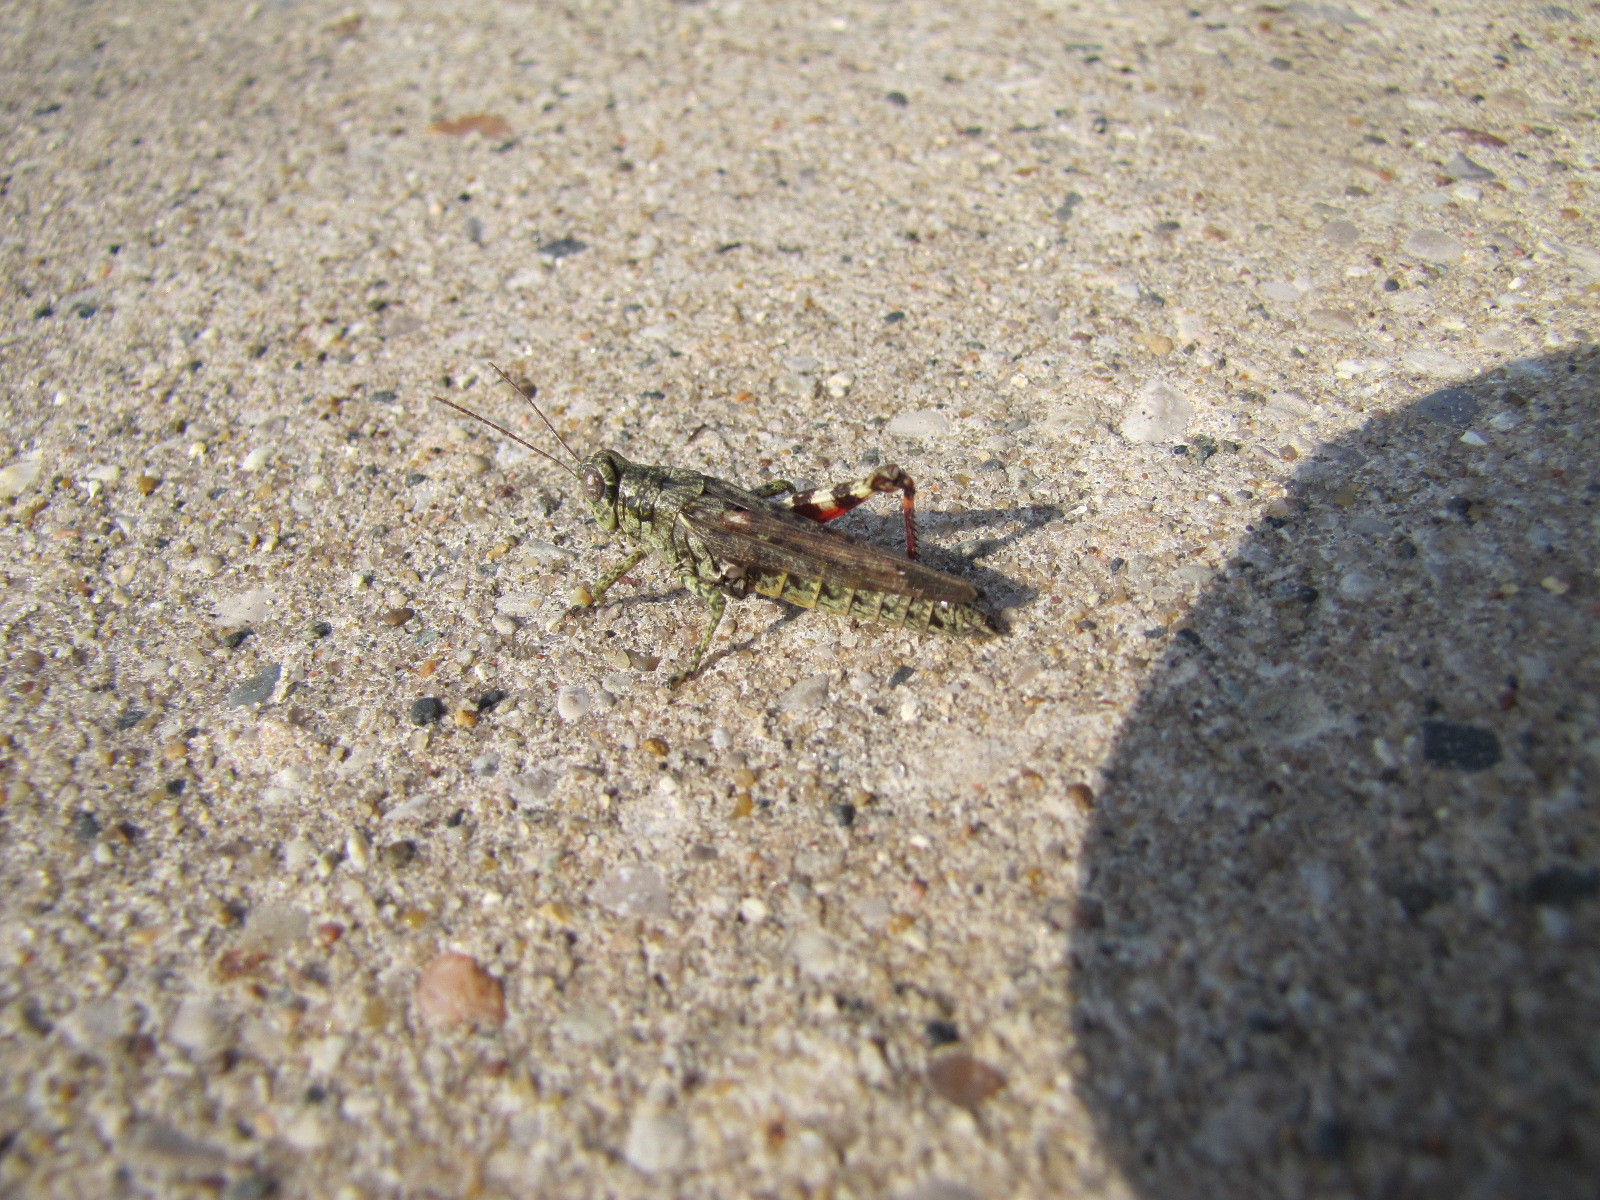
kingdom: Animalia
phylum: Arthropoda
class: Insecta
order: Orthoptera
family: Acrididae
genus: Melanoplus
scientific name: Melanoplus punctulatus
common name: Pine-tree spur-throat grasshopper
